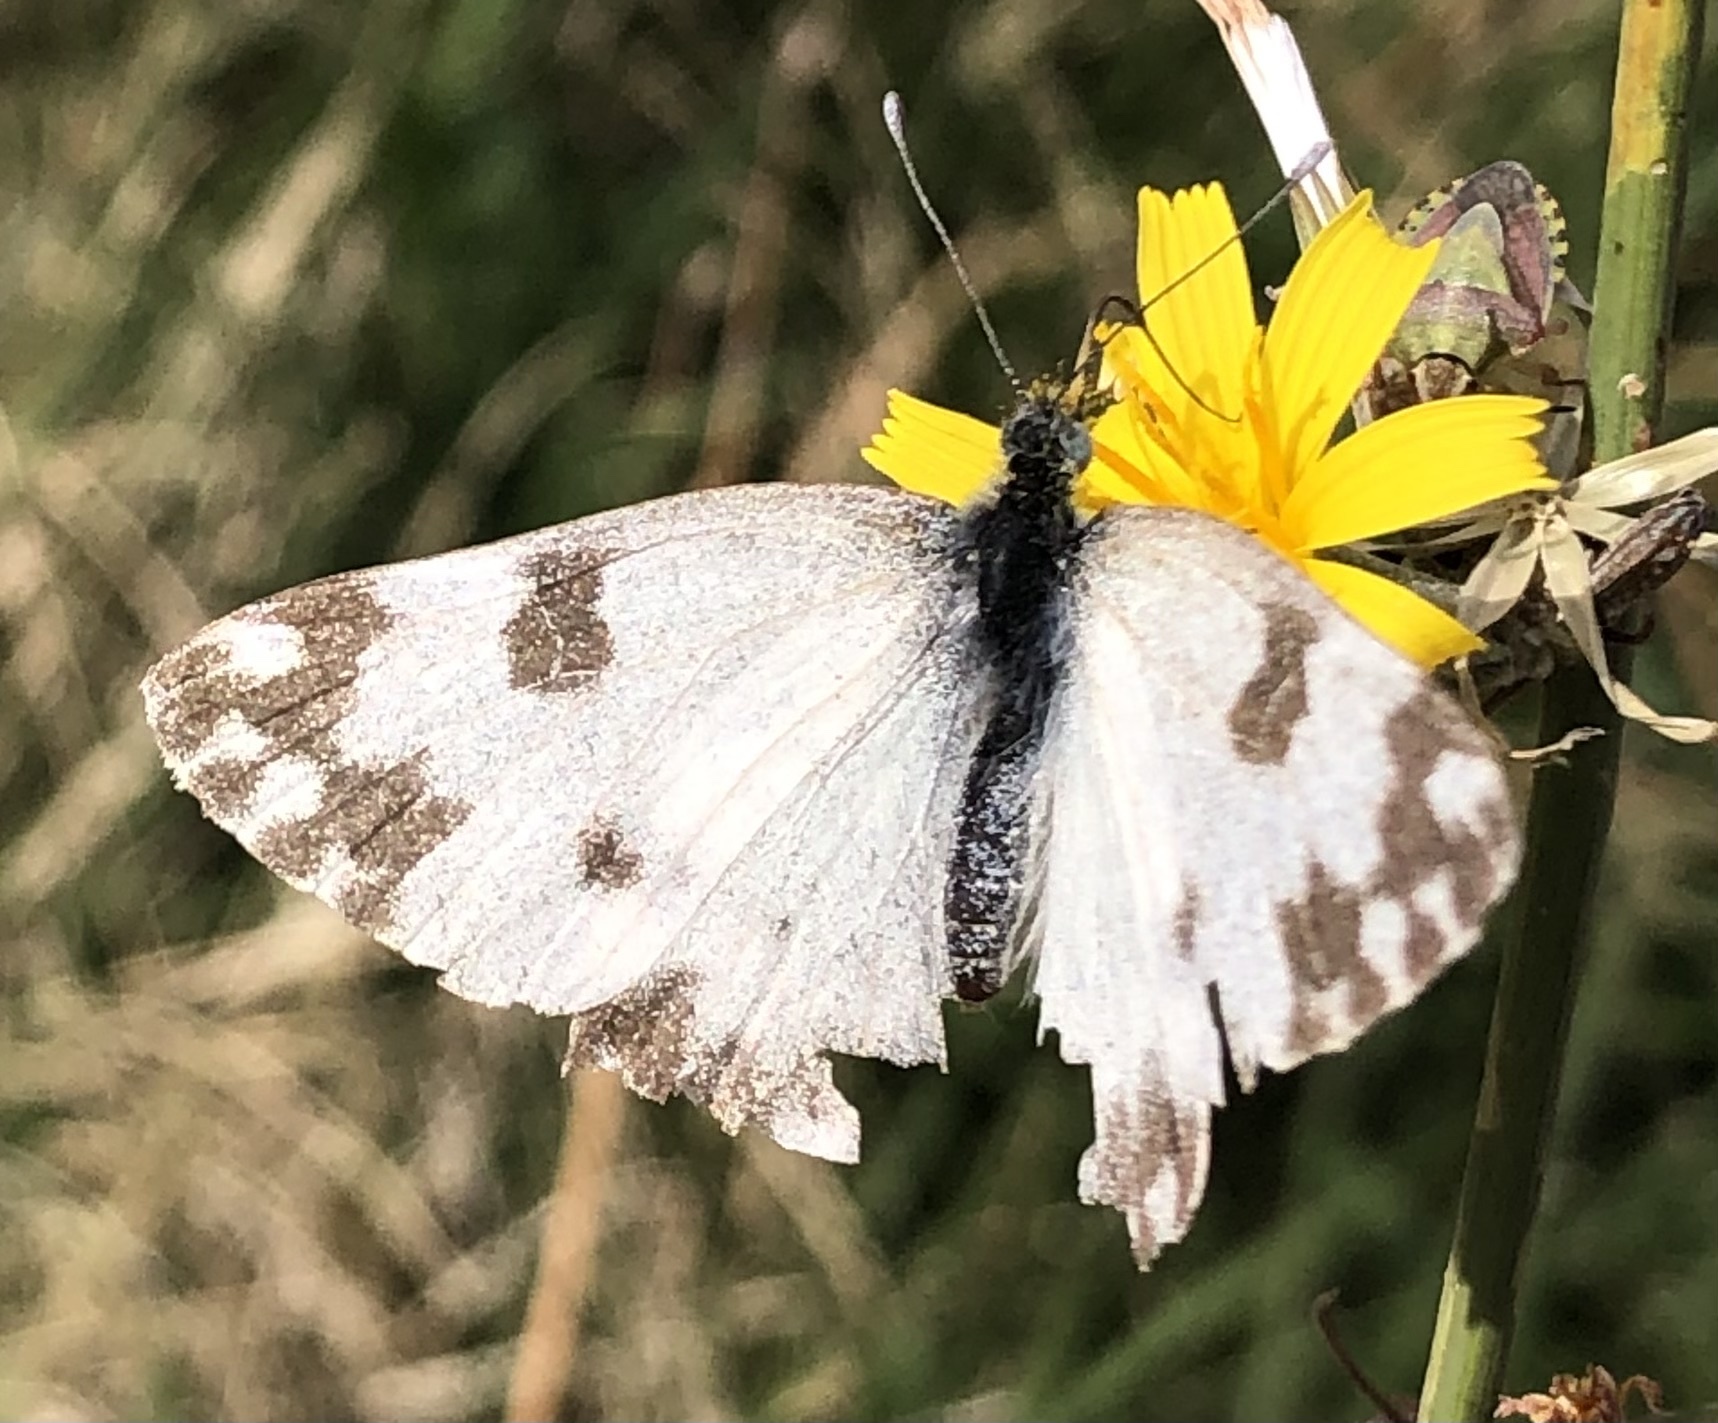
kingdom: Animalia
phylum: Arthropoda
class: Insecta
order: Lepidoptera
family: Pieridae
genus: Pontia
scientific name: Pontia edusa
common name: Eastern bath white
